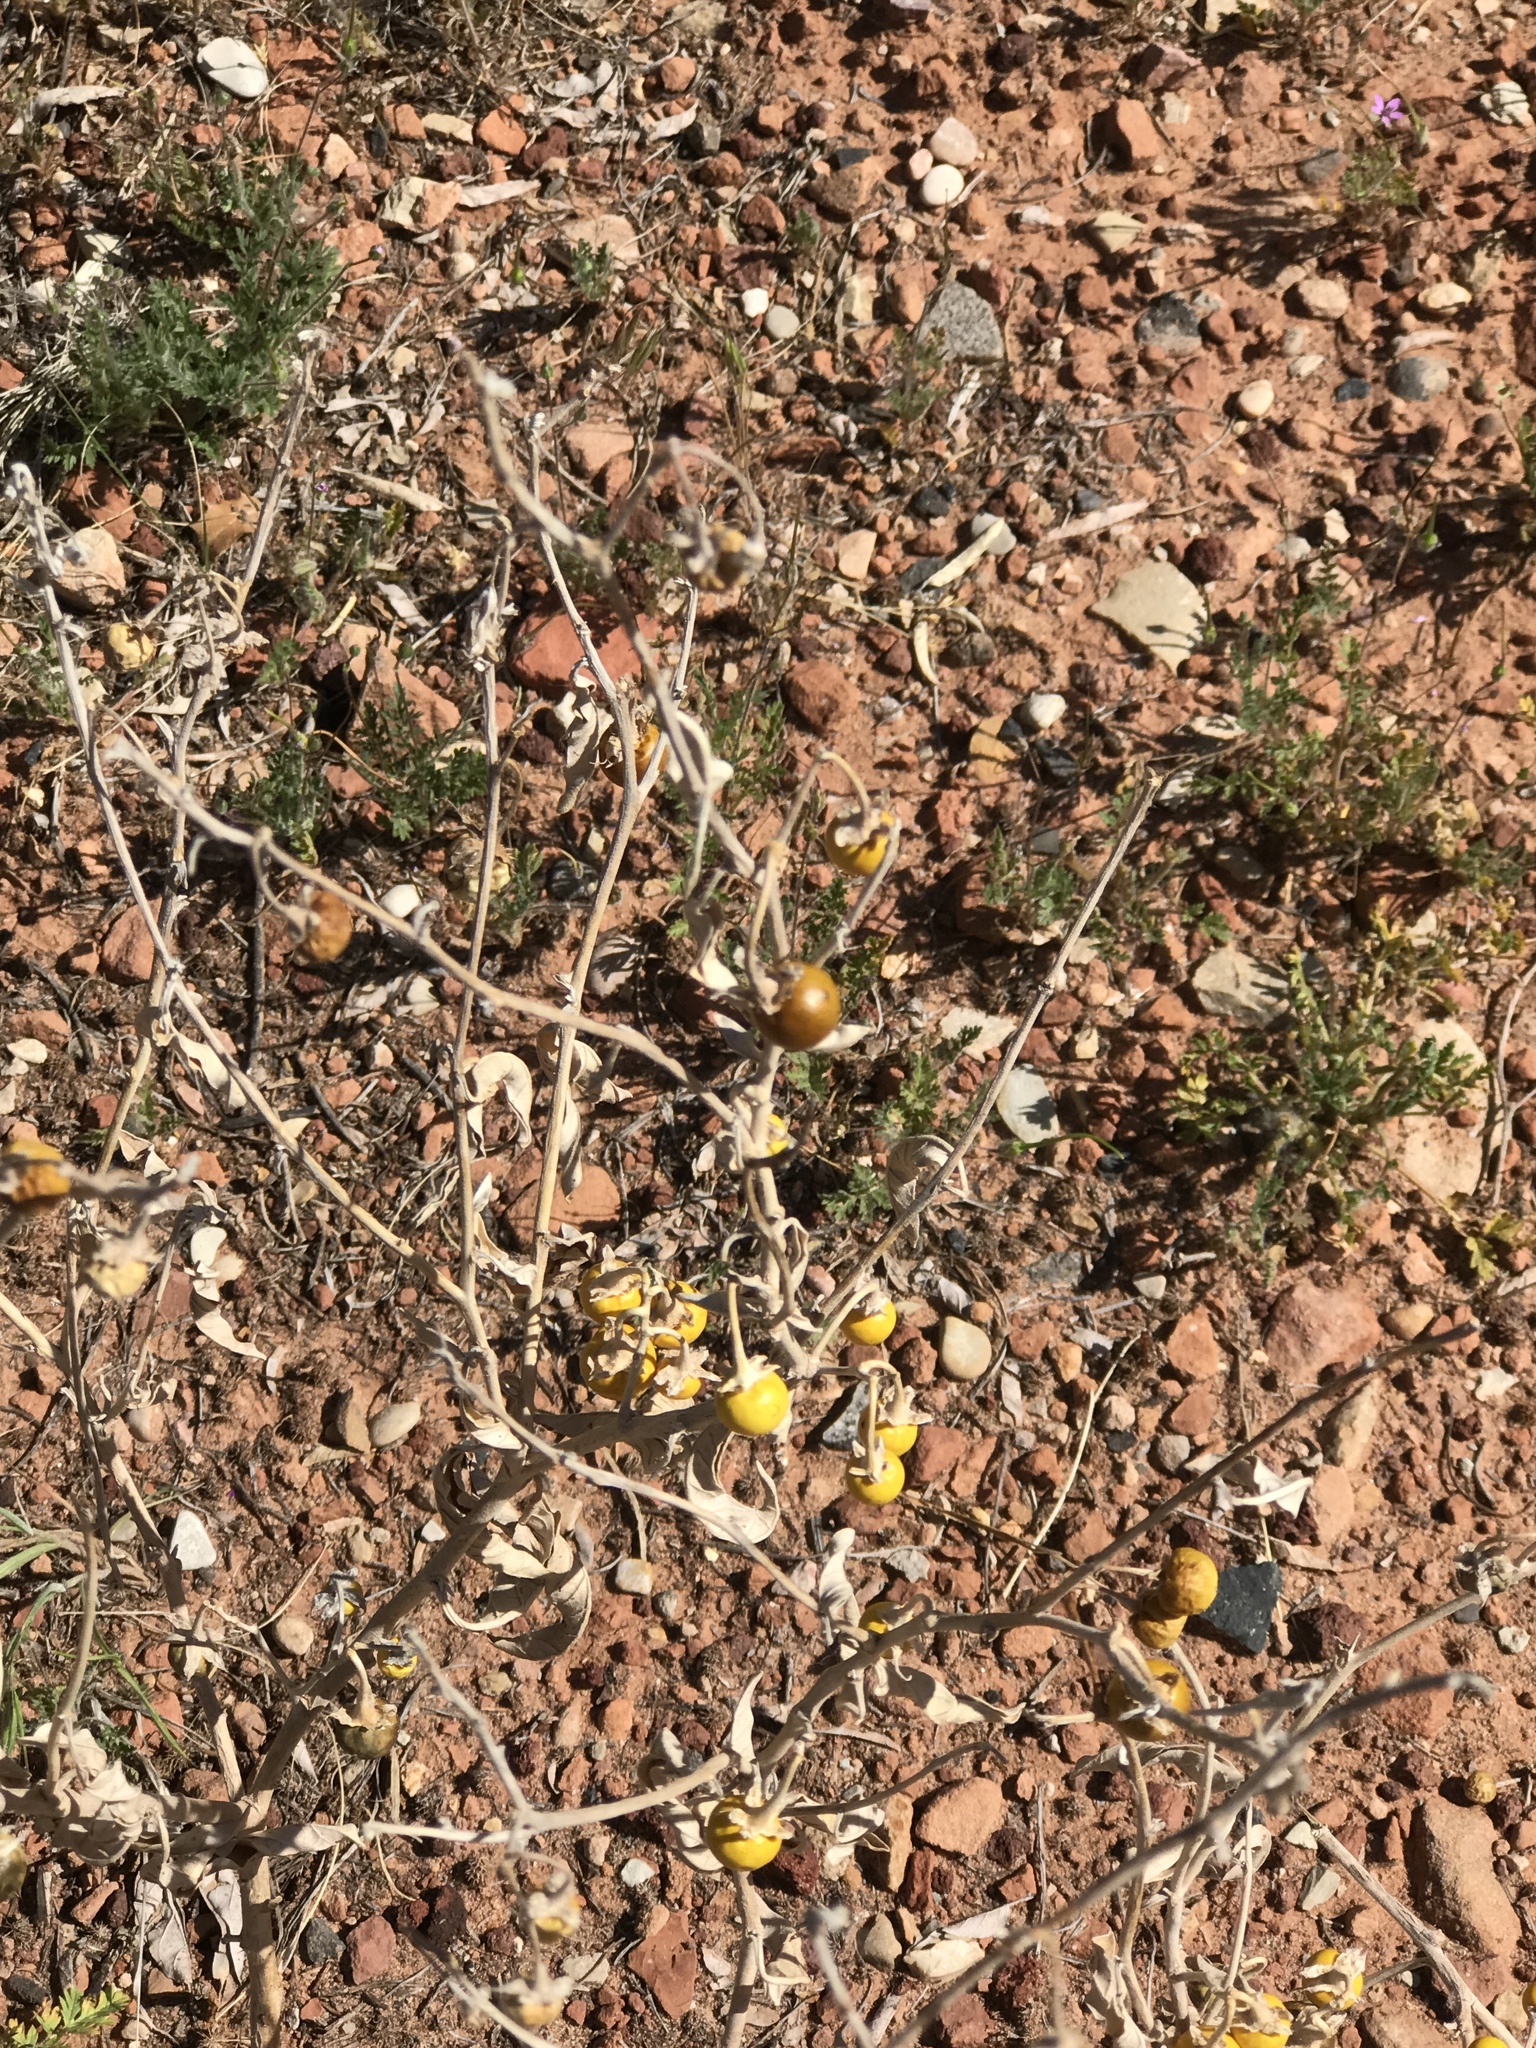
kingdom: Plantae
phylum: Tracheophyta
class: Magnoliopsida
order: Solanales
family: Solanaceae
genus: Solanum
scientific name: Solanum elaeagnifolium
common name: Silverleaf nightshade
